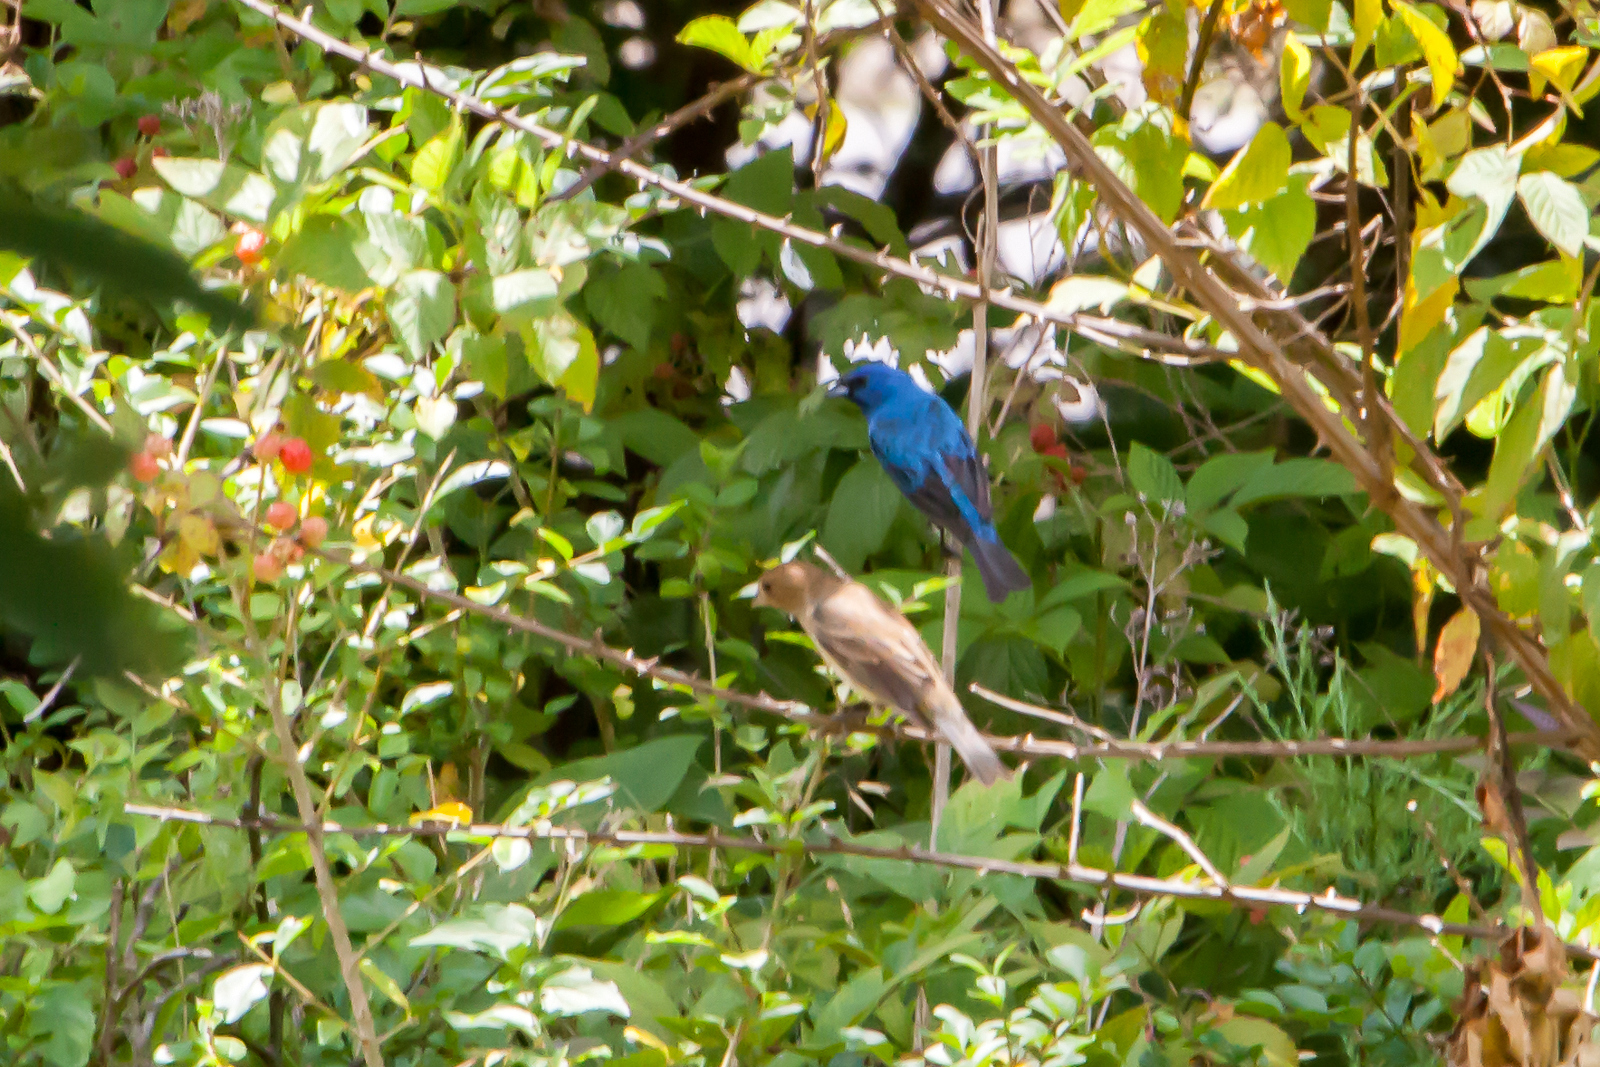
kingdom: Animalia
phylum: Chordata
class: Aves
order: Passeriformes
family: Cardinalidae
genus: Passerina
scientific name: Passerina cyanea
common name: Indigo bunting
